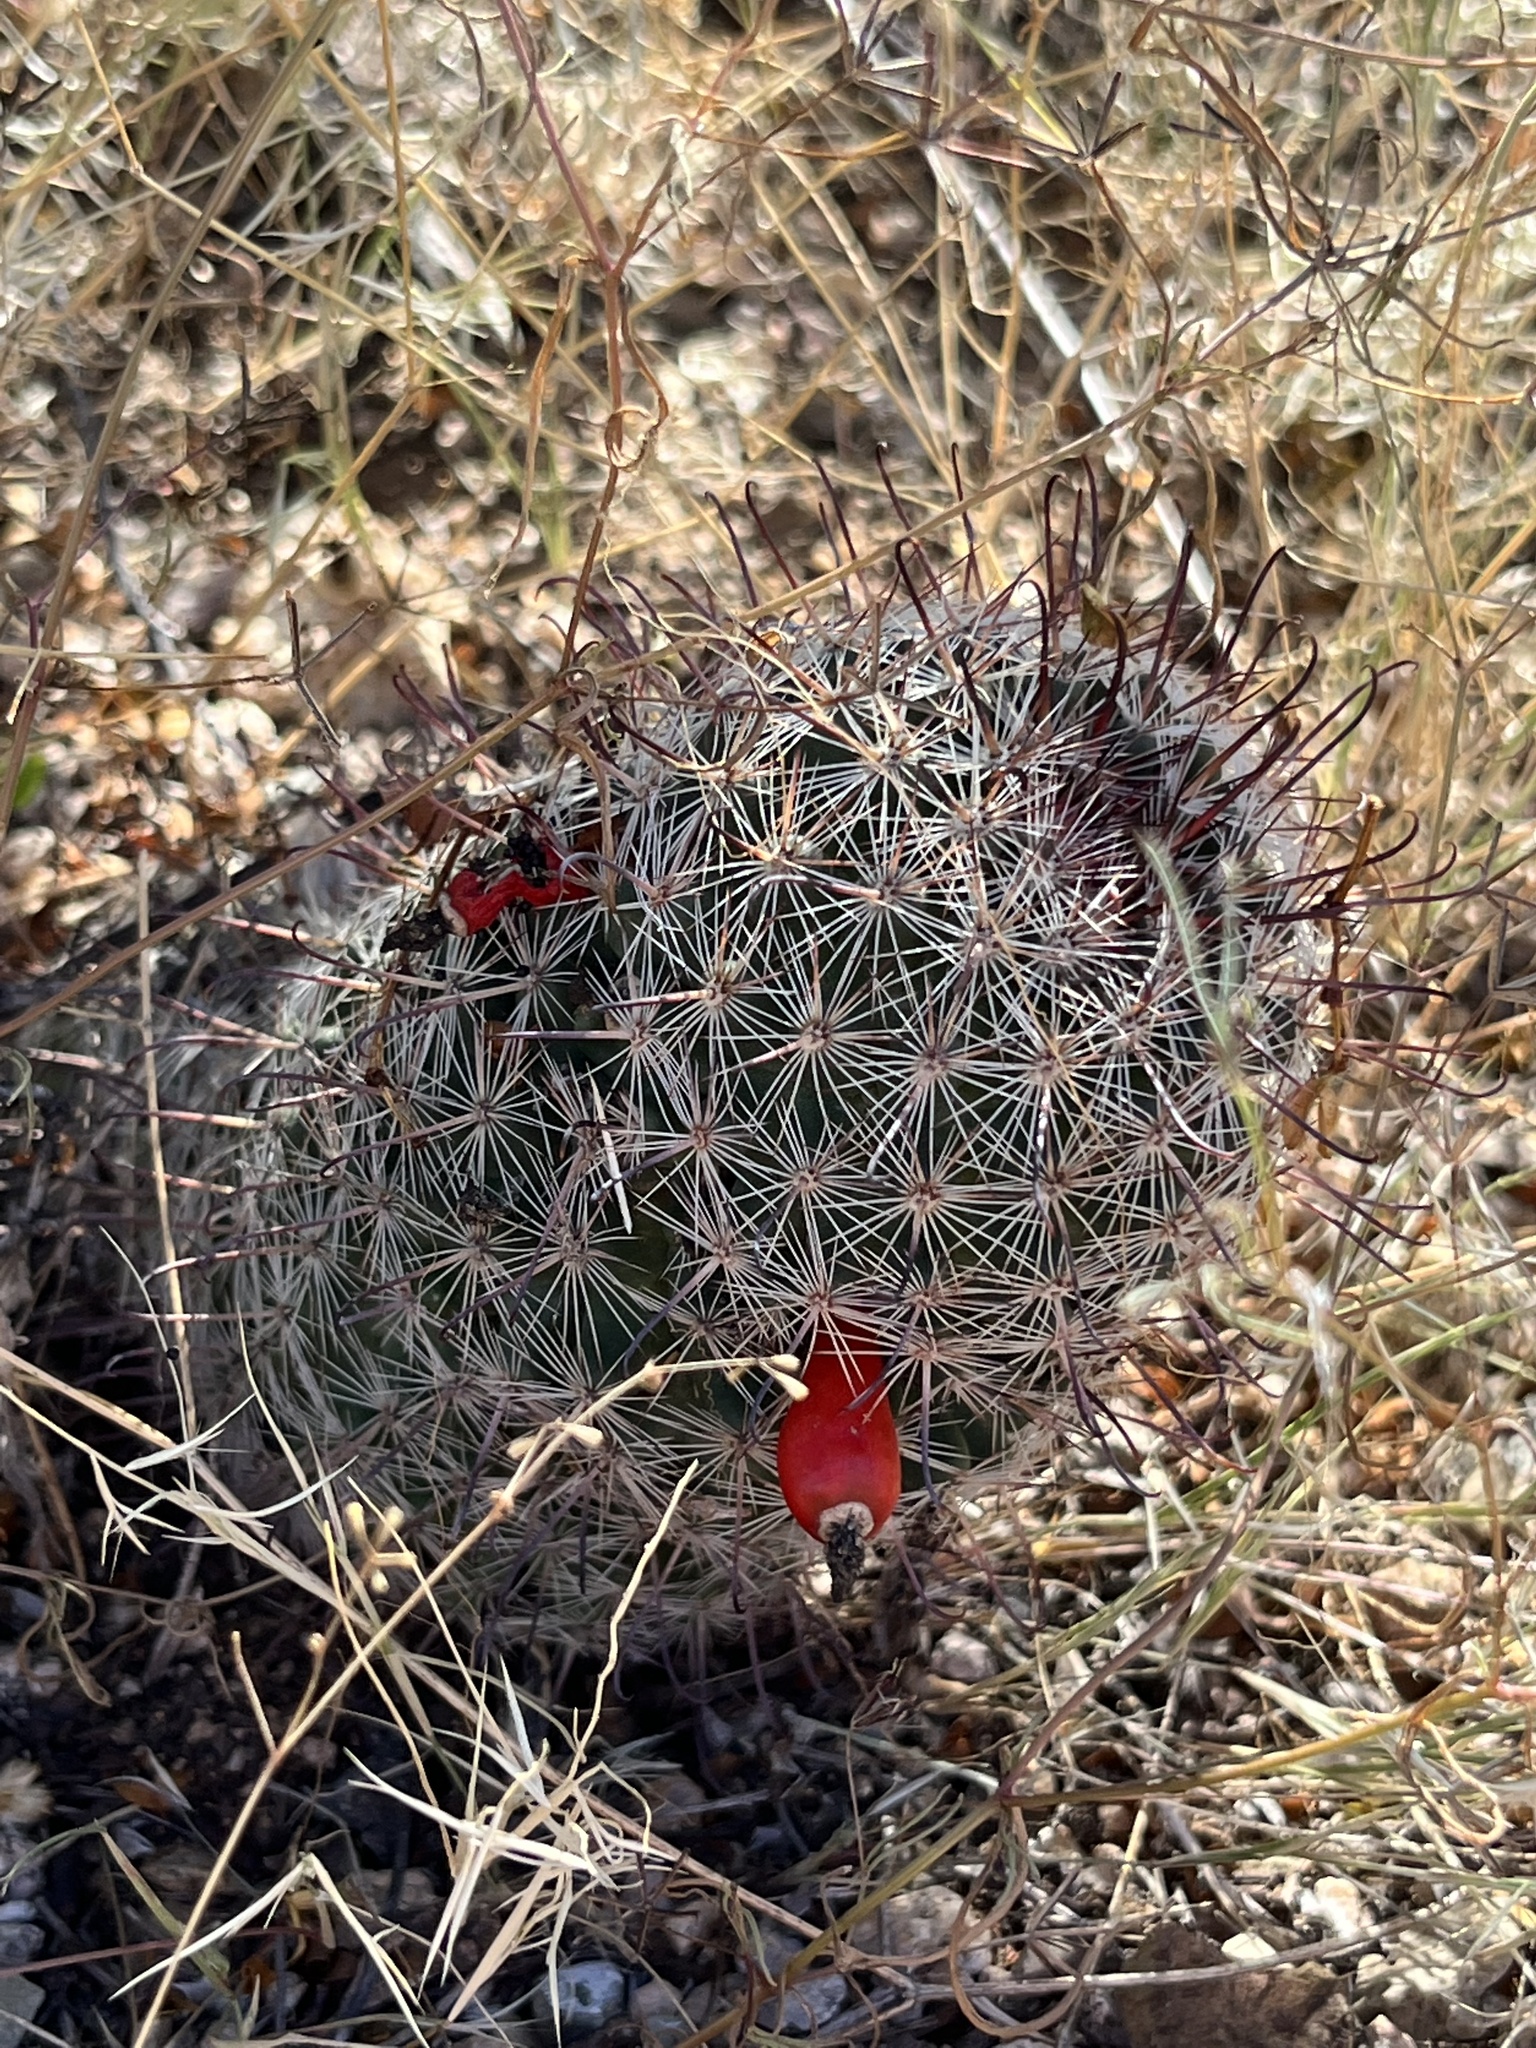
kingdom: Plantae
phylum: Tracheophyta
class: Magnoliopsida
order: Caryophyllales
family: Cactaceae
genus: Cochemiea
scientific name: Cochemiea grahamii
